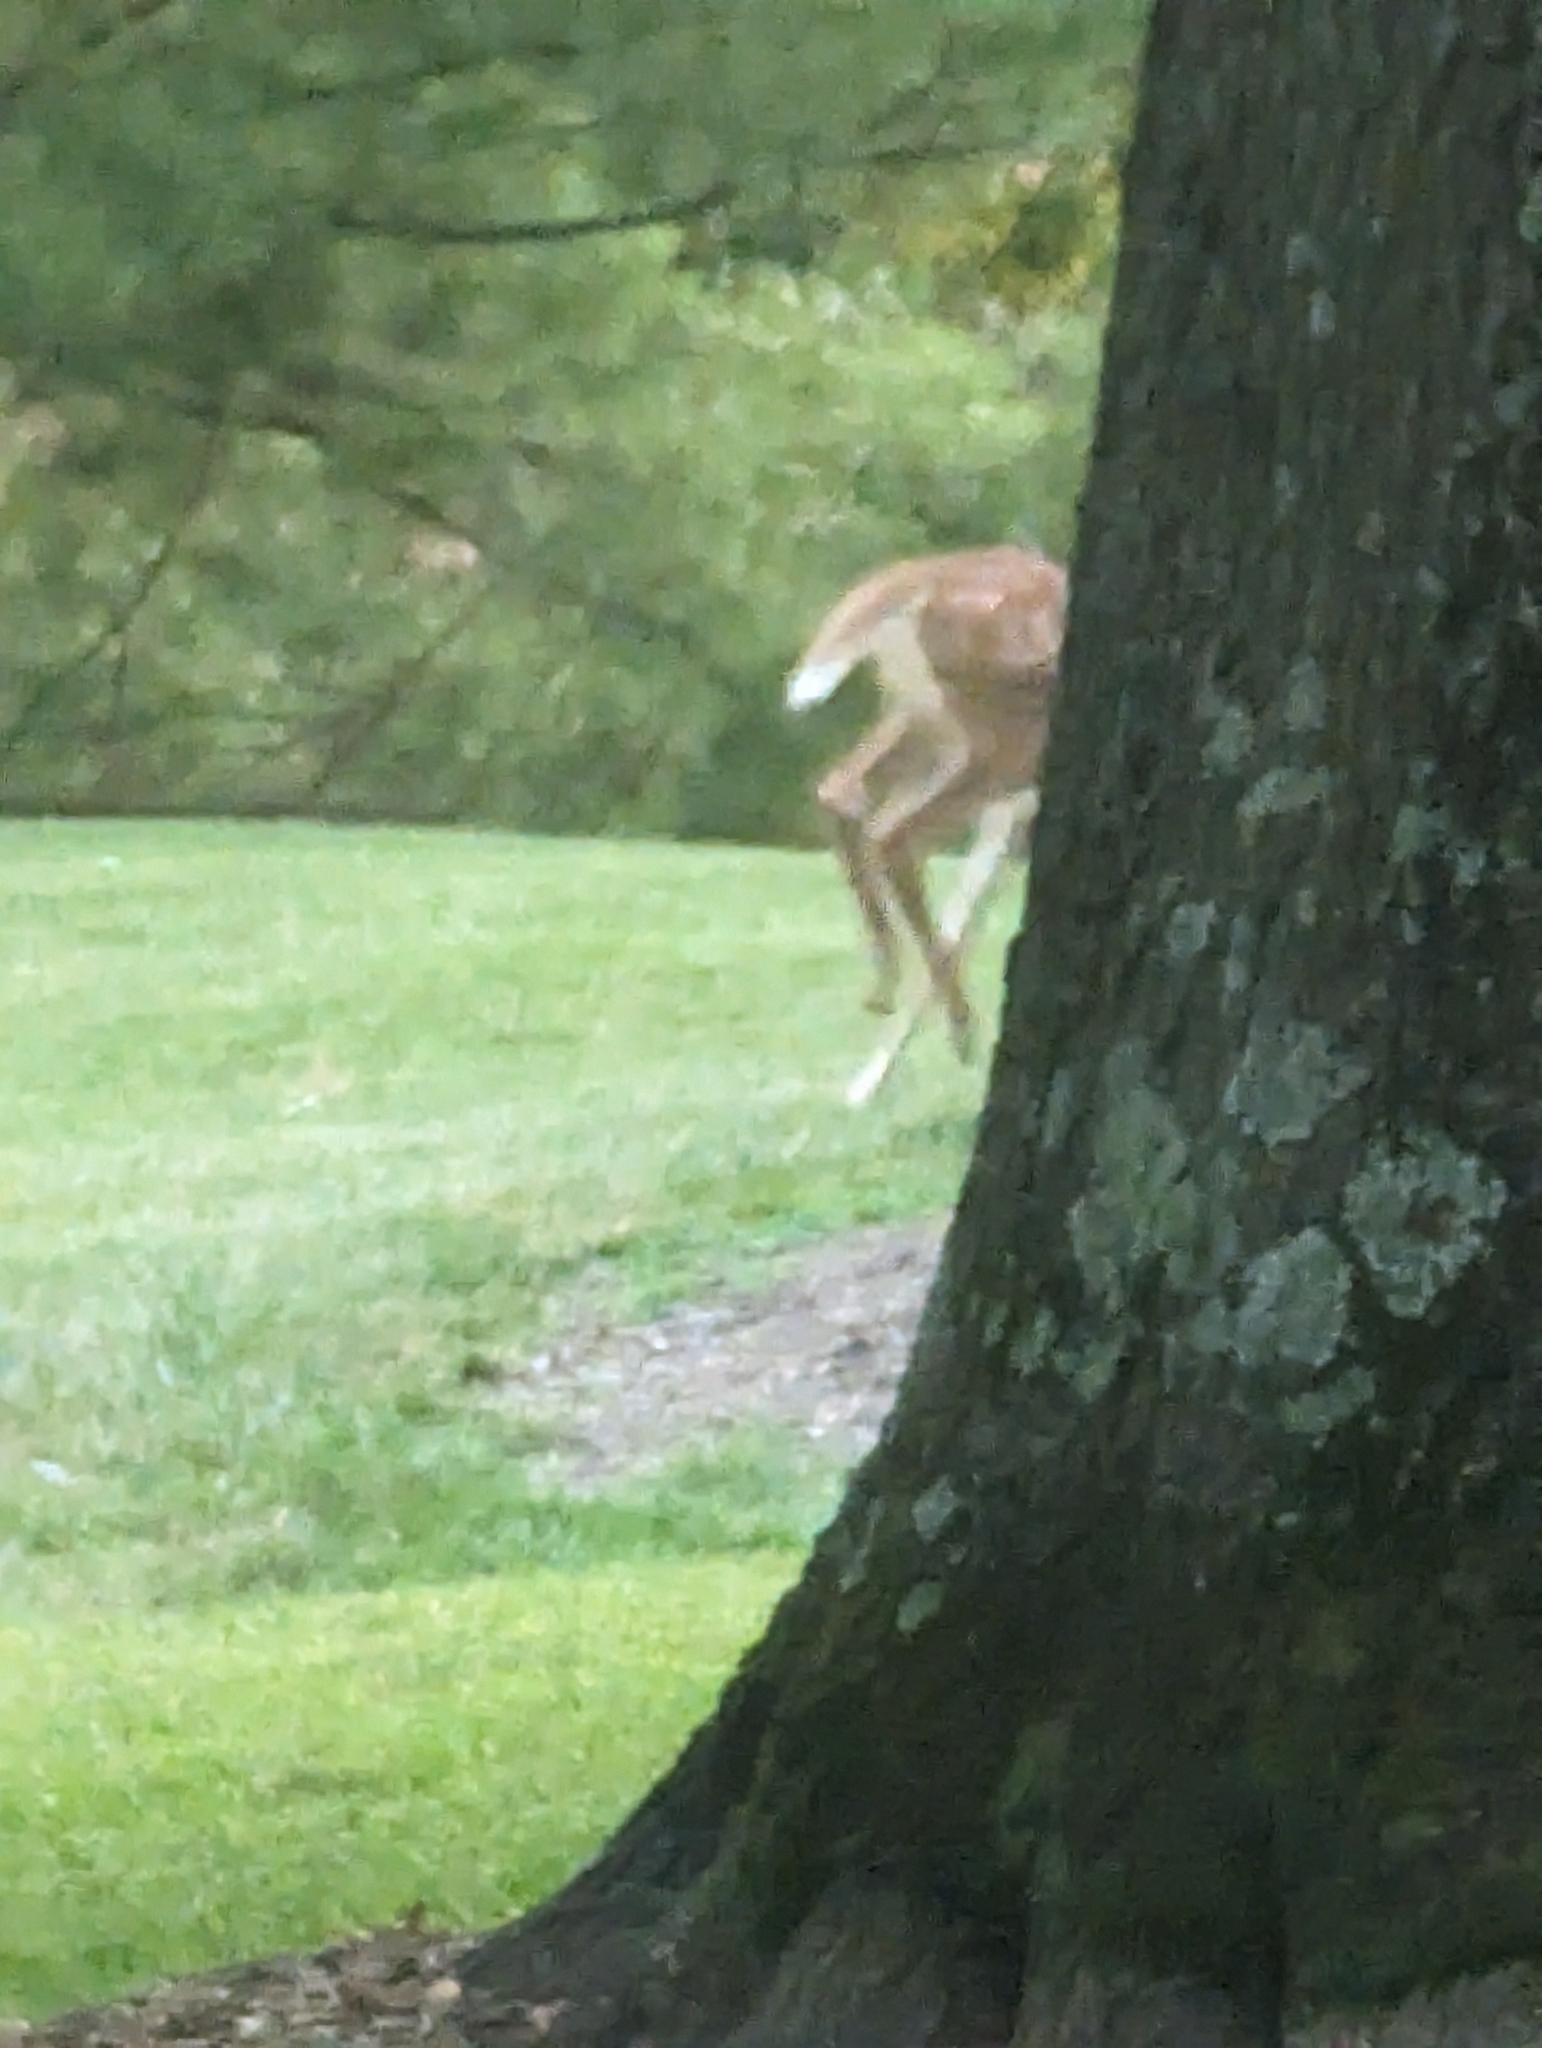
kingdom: Animalia
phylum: Chordata
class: Mammalia
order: Artiodactyla
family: Cervidae
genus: Odocoileus
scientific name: Odocoileus virginianus
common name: White-tailed deer
